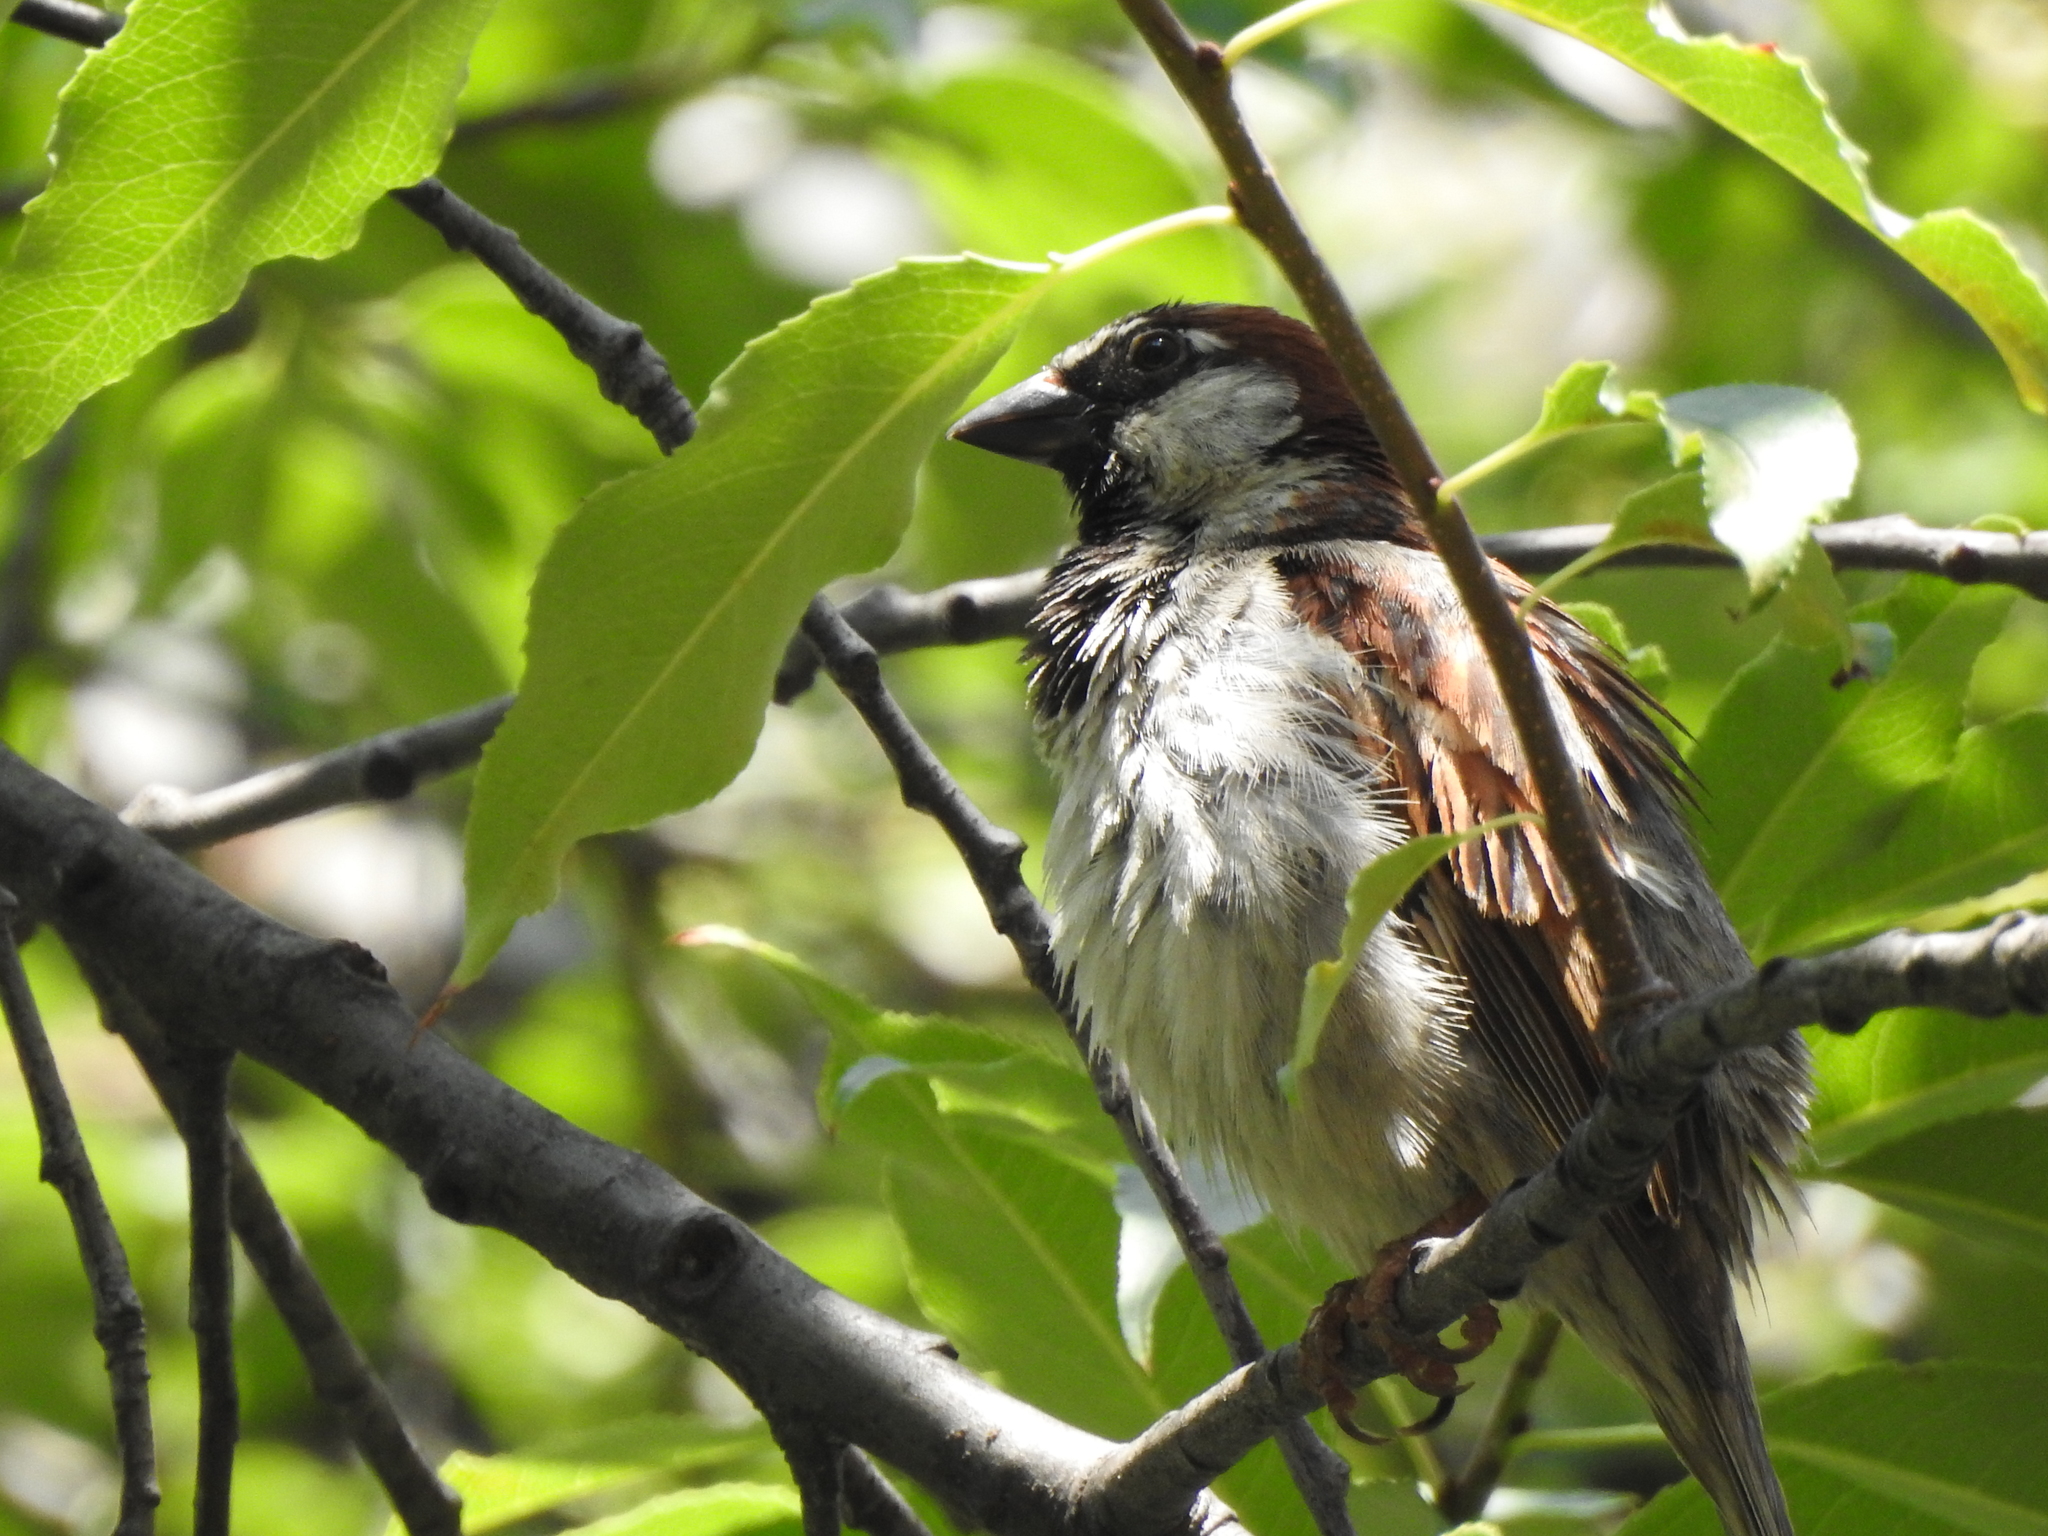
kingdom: Animalia
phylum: Chordata
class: Aves
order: Passeriformes
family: Passeridae
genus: Passer
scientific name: Passer domesticus
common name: House sparrow
